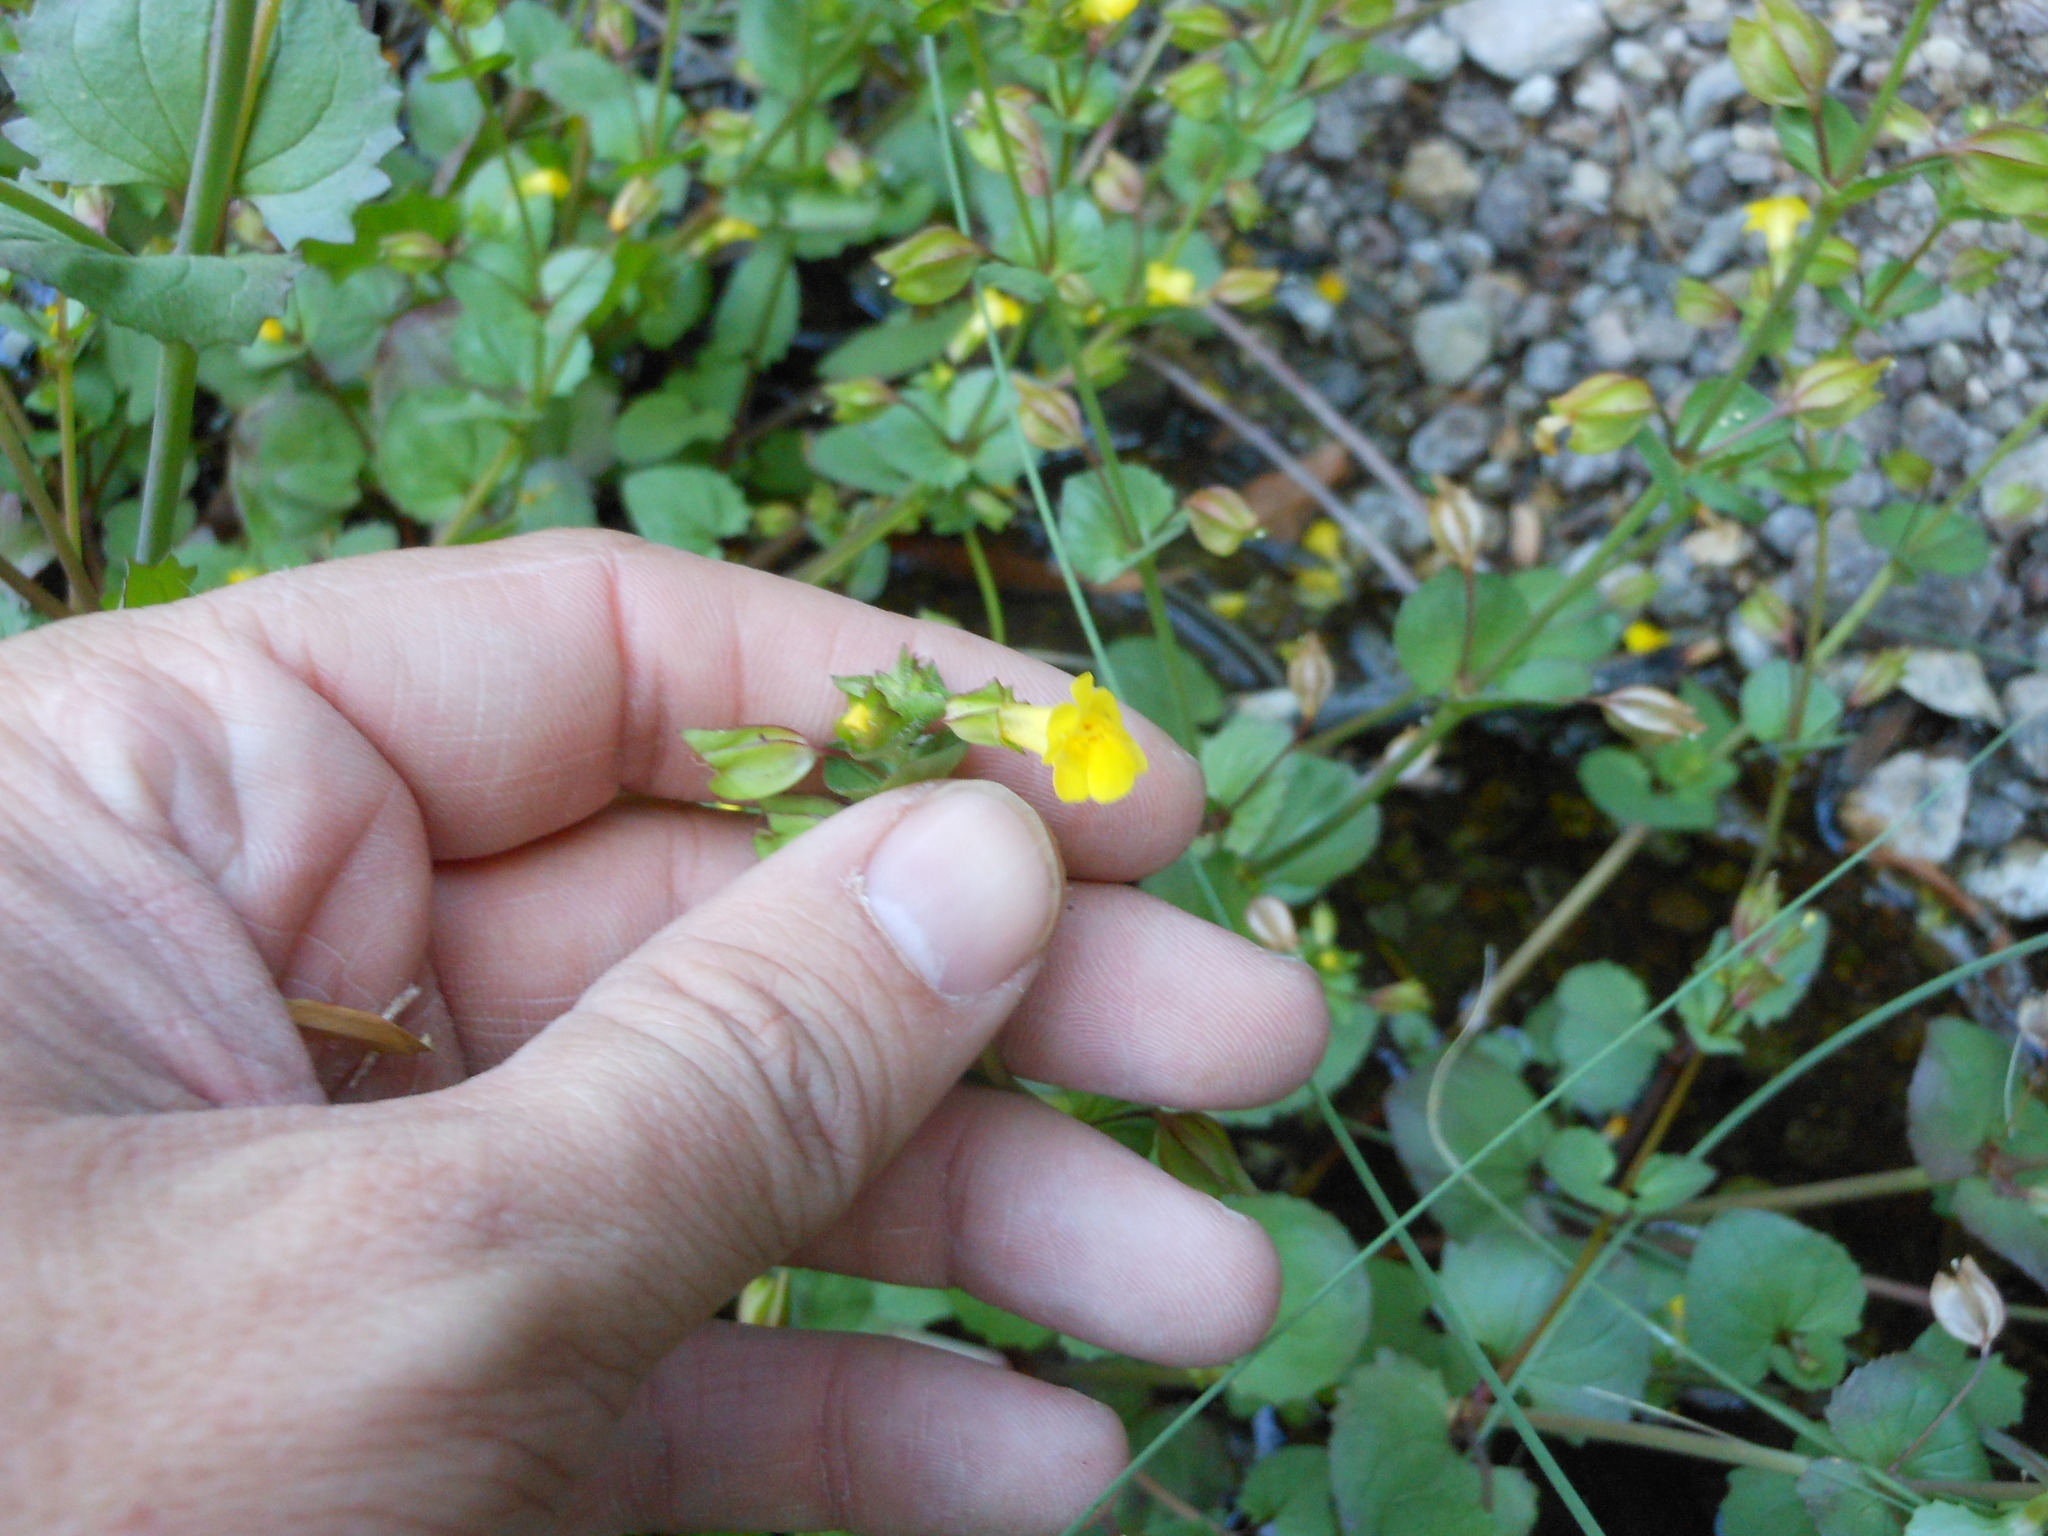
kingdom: Plantae
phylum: Tracheophyta
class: Magnoliopsida
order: Lamiales
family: Plantaginaceae
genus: Mecardonia
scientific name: Mecardonia procumbens
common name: Baby jump-up
